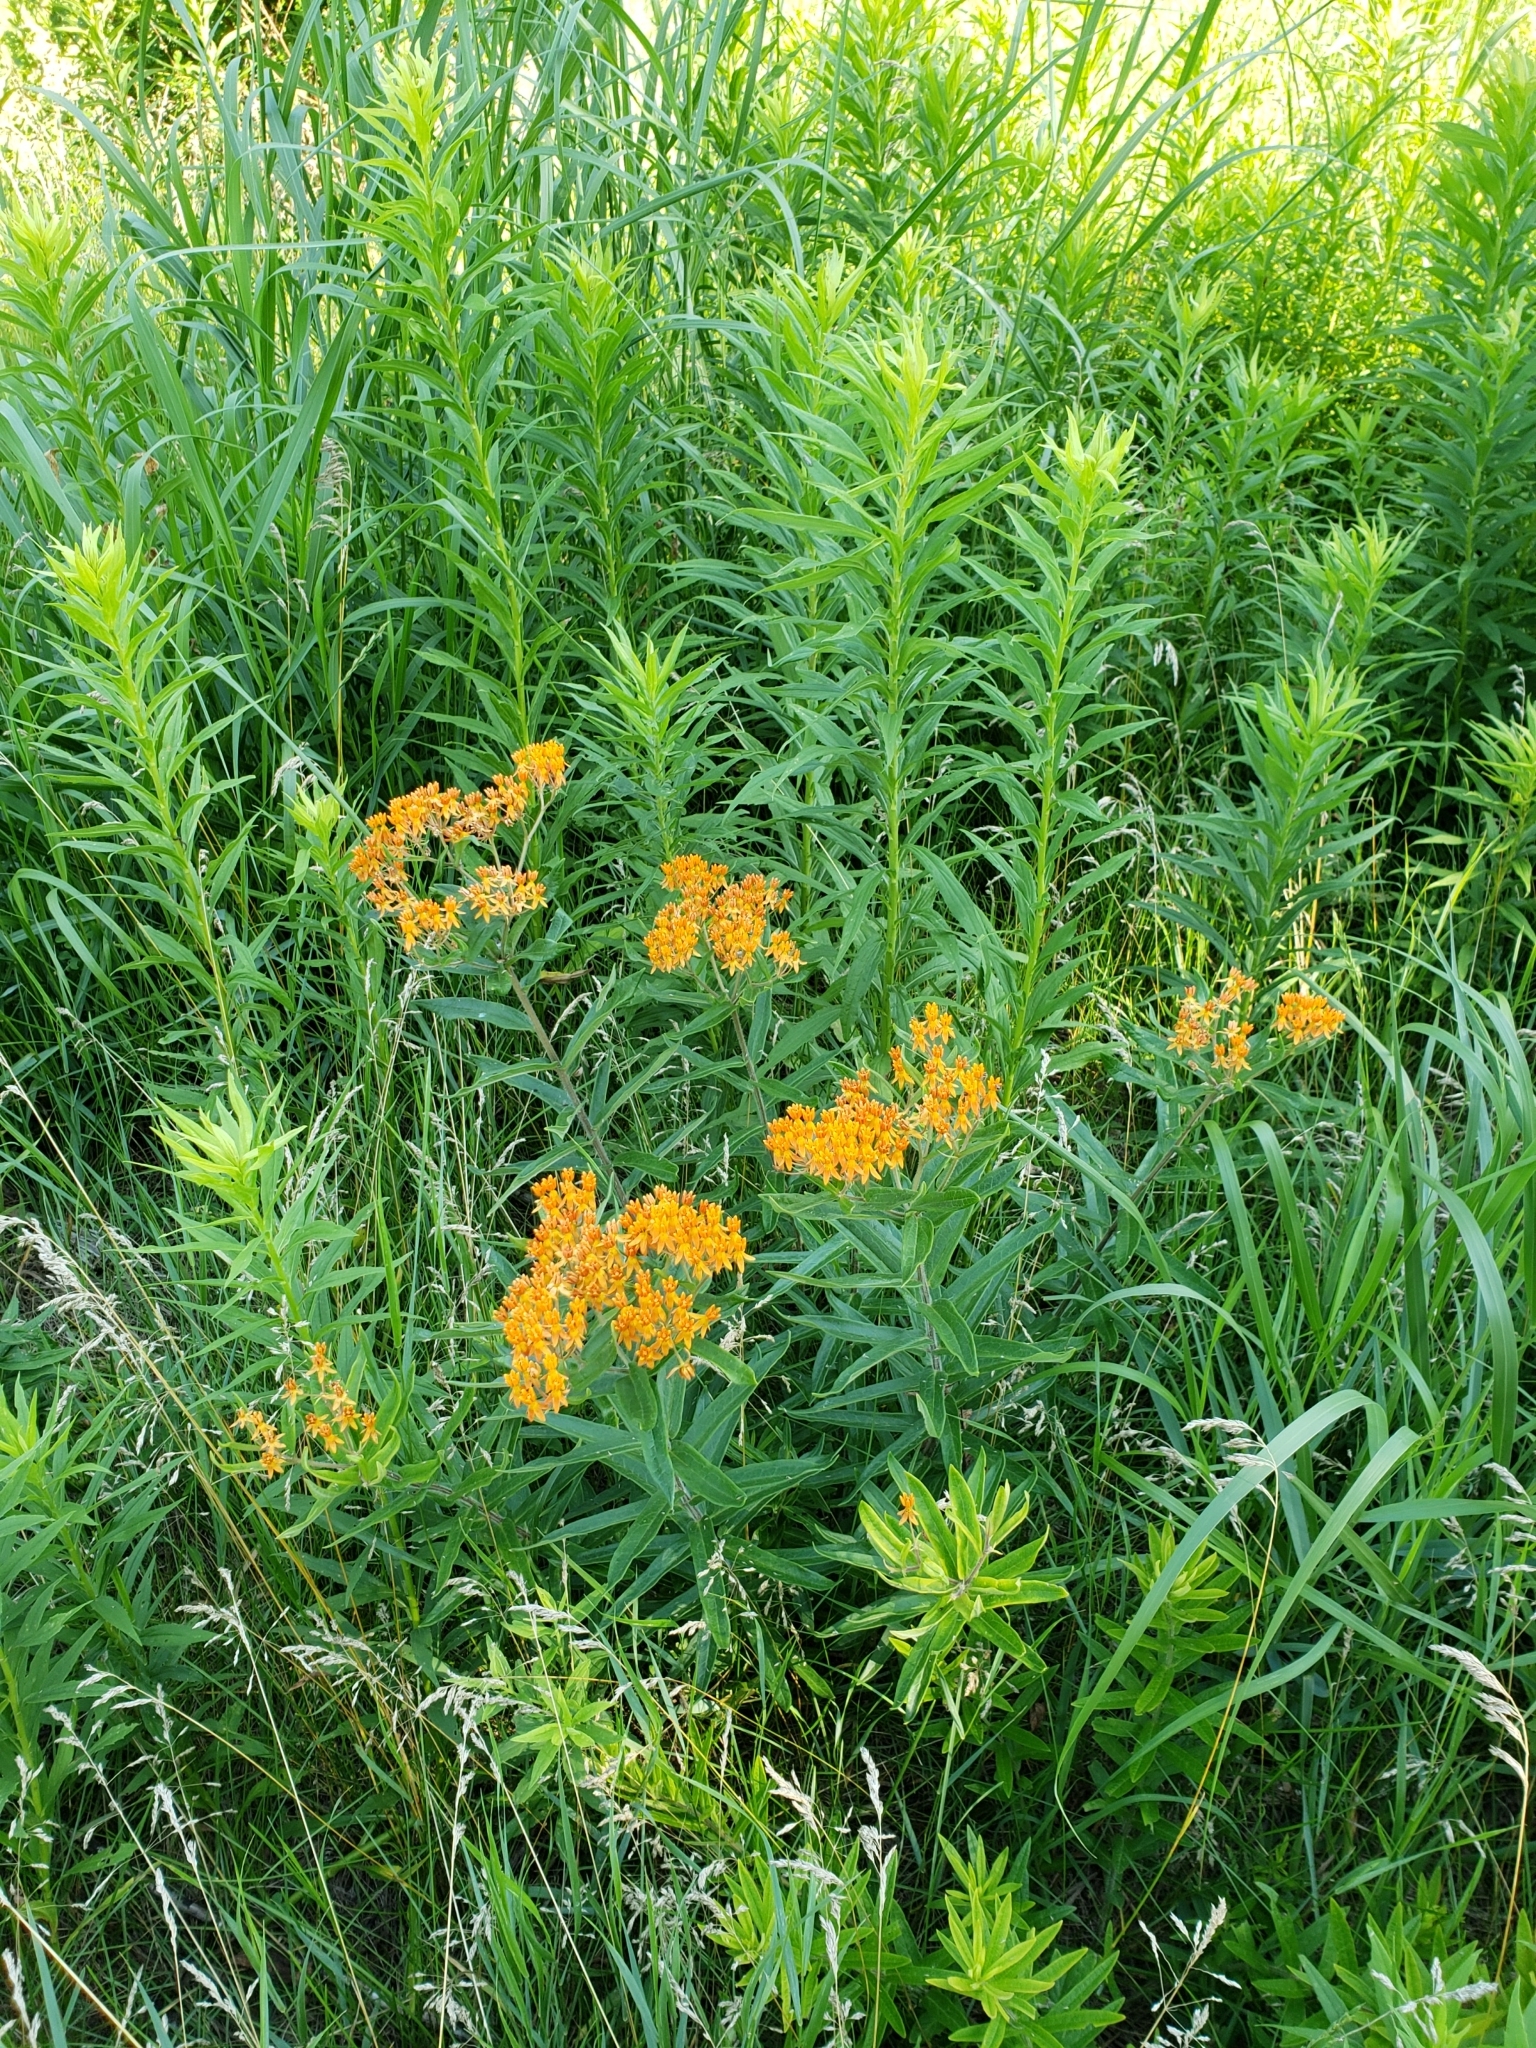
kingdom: Plantae
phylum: Tracheophyta
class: Magnoliopsida
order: Gentianales
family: Apocynaceae
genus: Asclepias
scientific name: Asclepias tuberosa
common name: Butterfly milkweed
